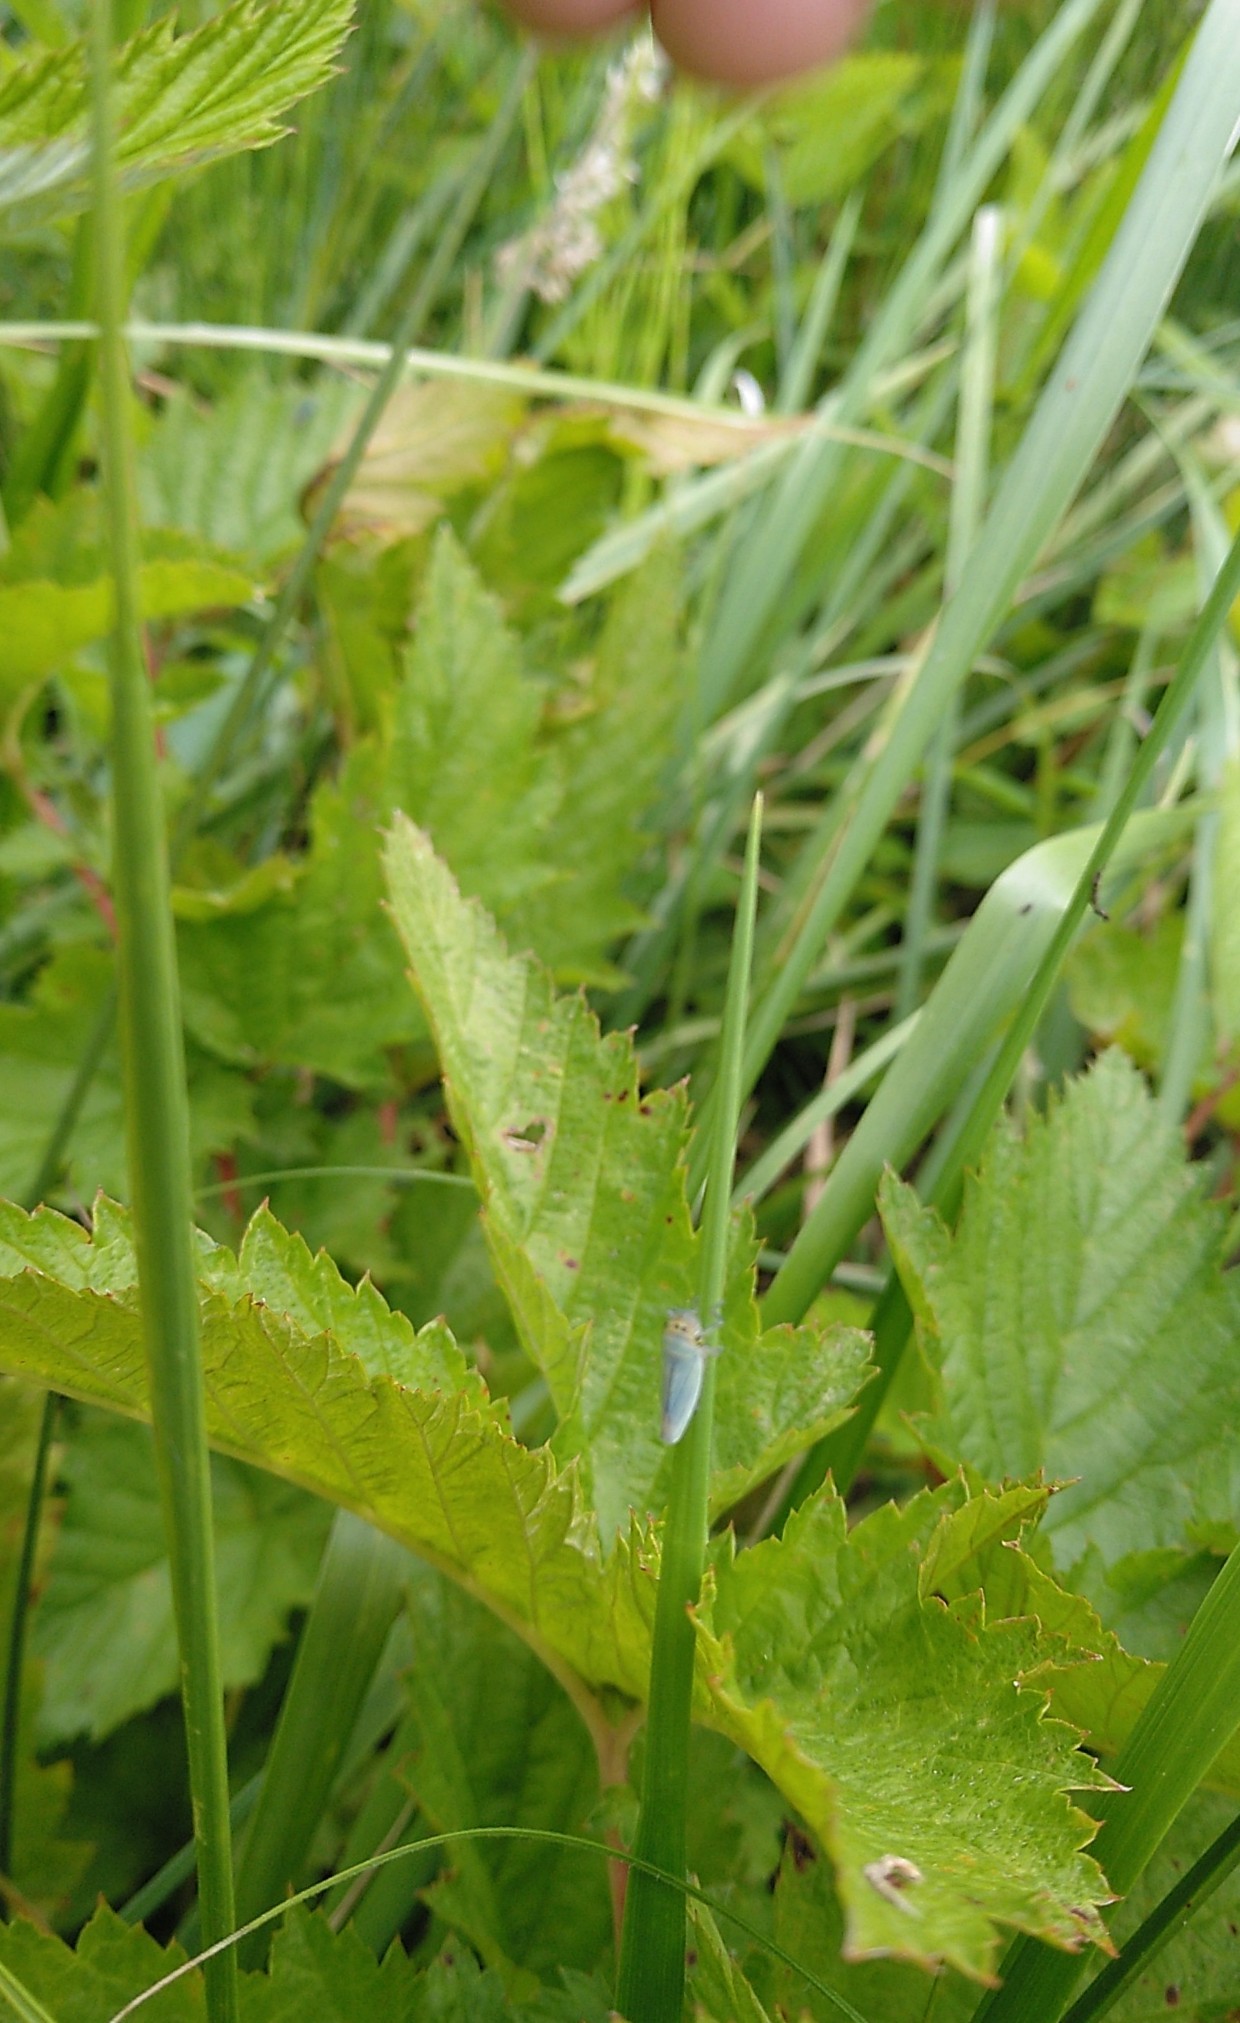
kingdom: Animalia
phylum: Arthropoda
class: Insecta
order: Hemiptera
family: Cicadellidae
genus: Cicadella
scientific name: Cicadella viridis
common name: Leafhopper
